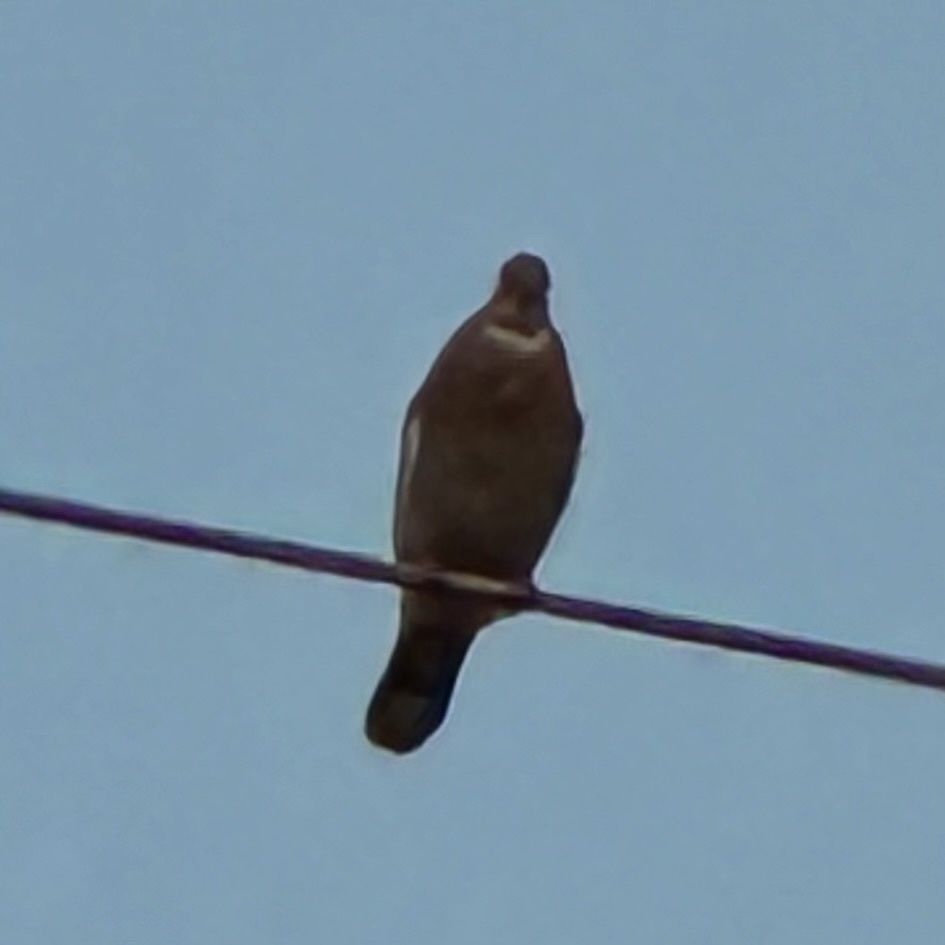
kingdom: Animalia
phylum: Chordata
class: Aves
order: Columbiformes
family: Columbidae
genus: Zenaida
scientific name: Zenaida asiatica
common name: White-winged dove
